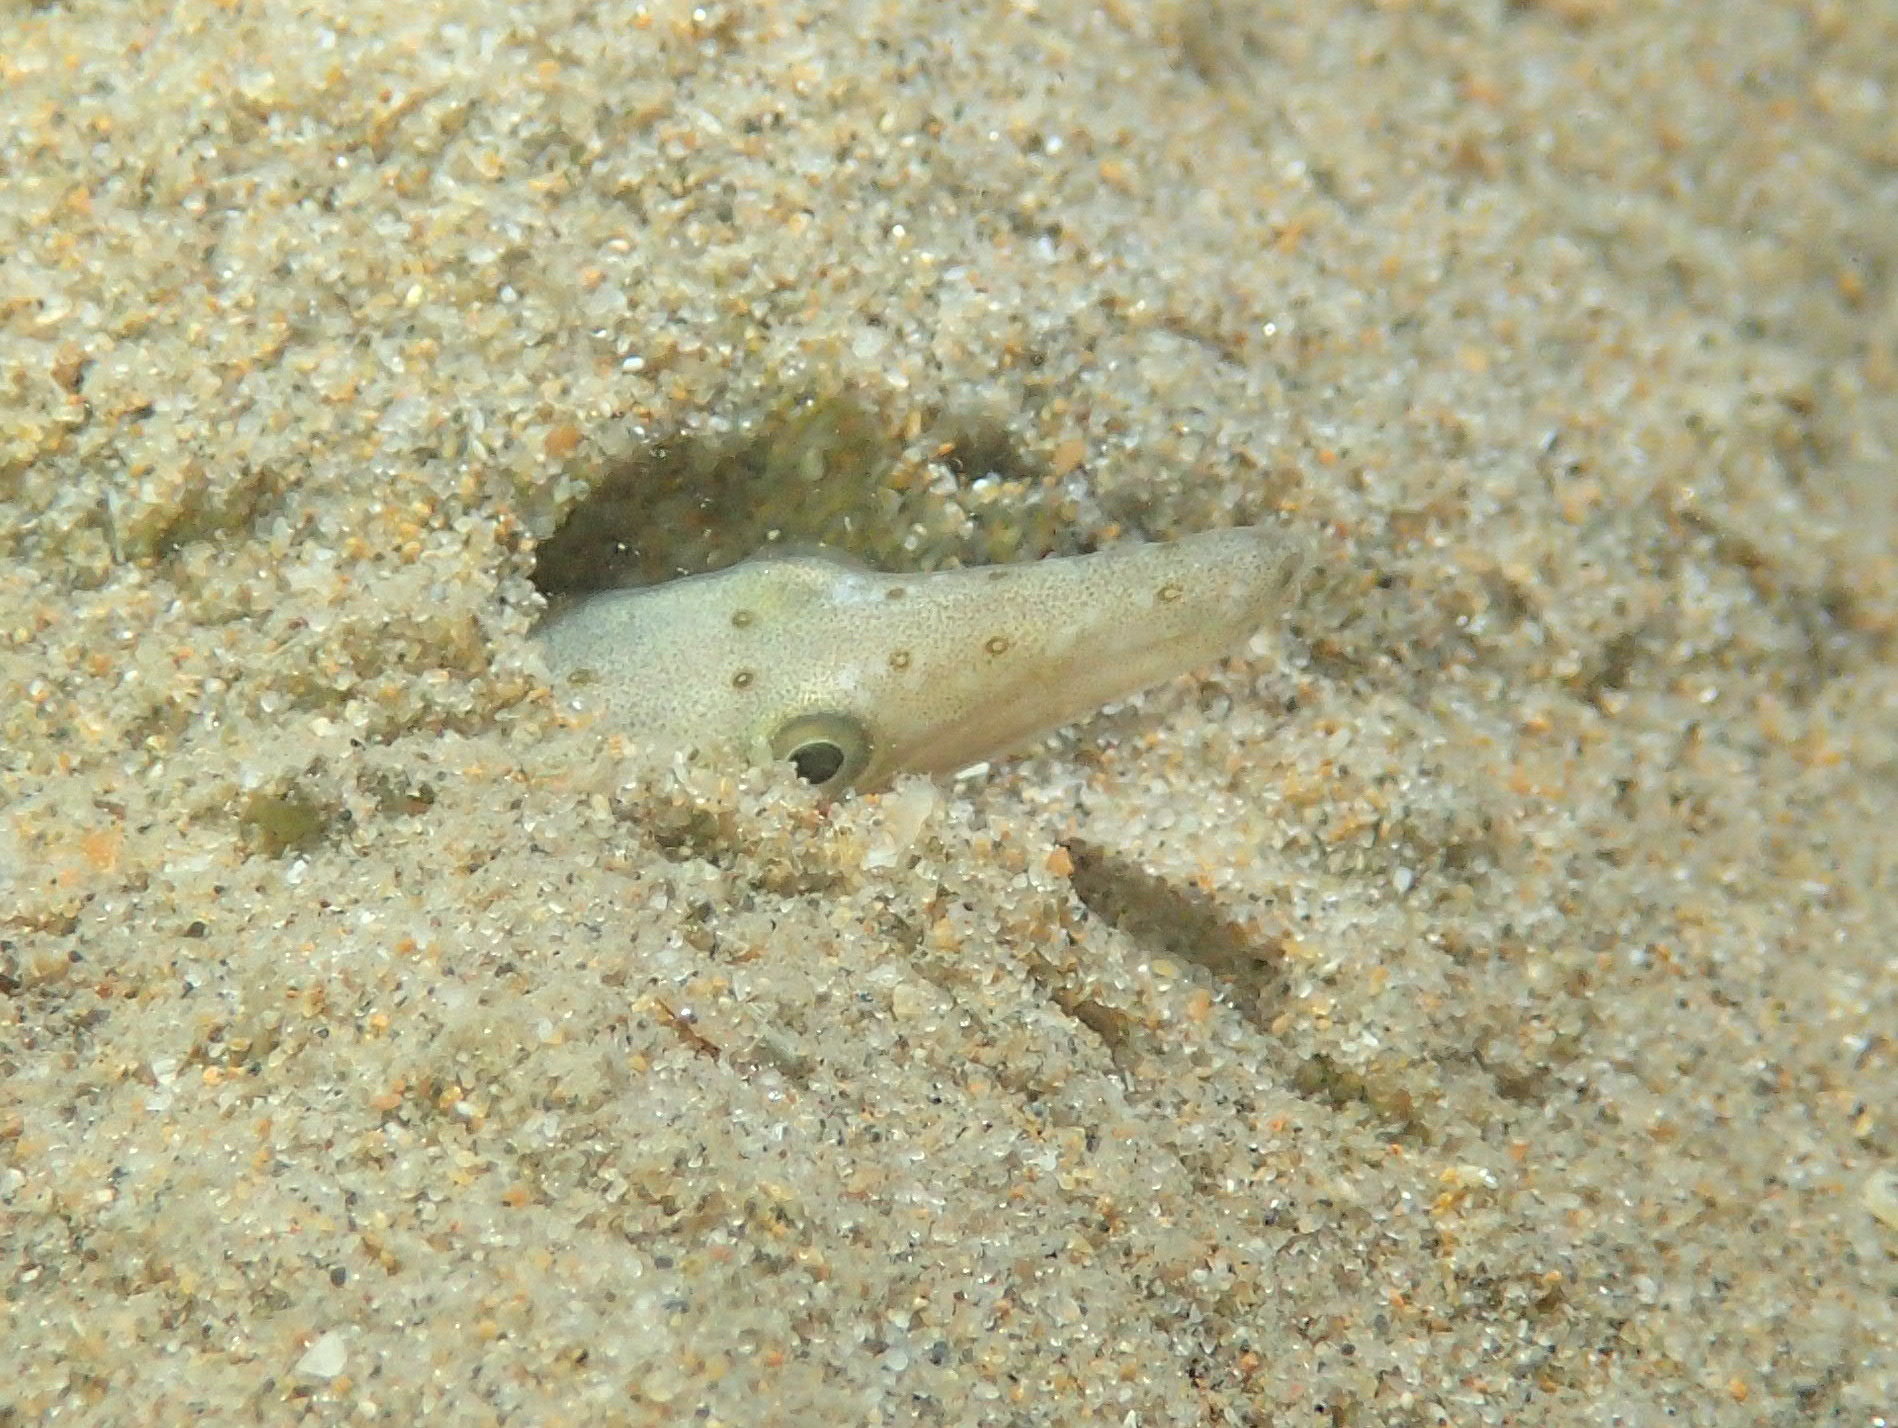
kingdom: Animalia
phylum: Chordata
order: Anguilliformes
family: Ophichthidae
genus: Ophisurus
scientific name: Ophisurus serpens
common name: Serpent eel
